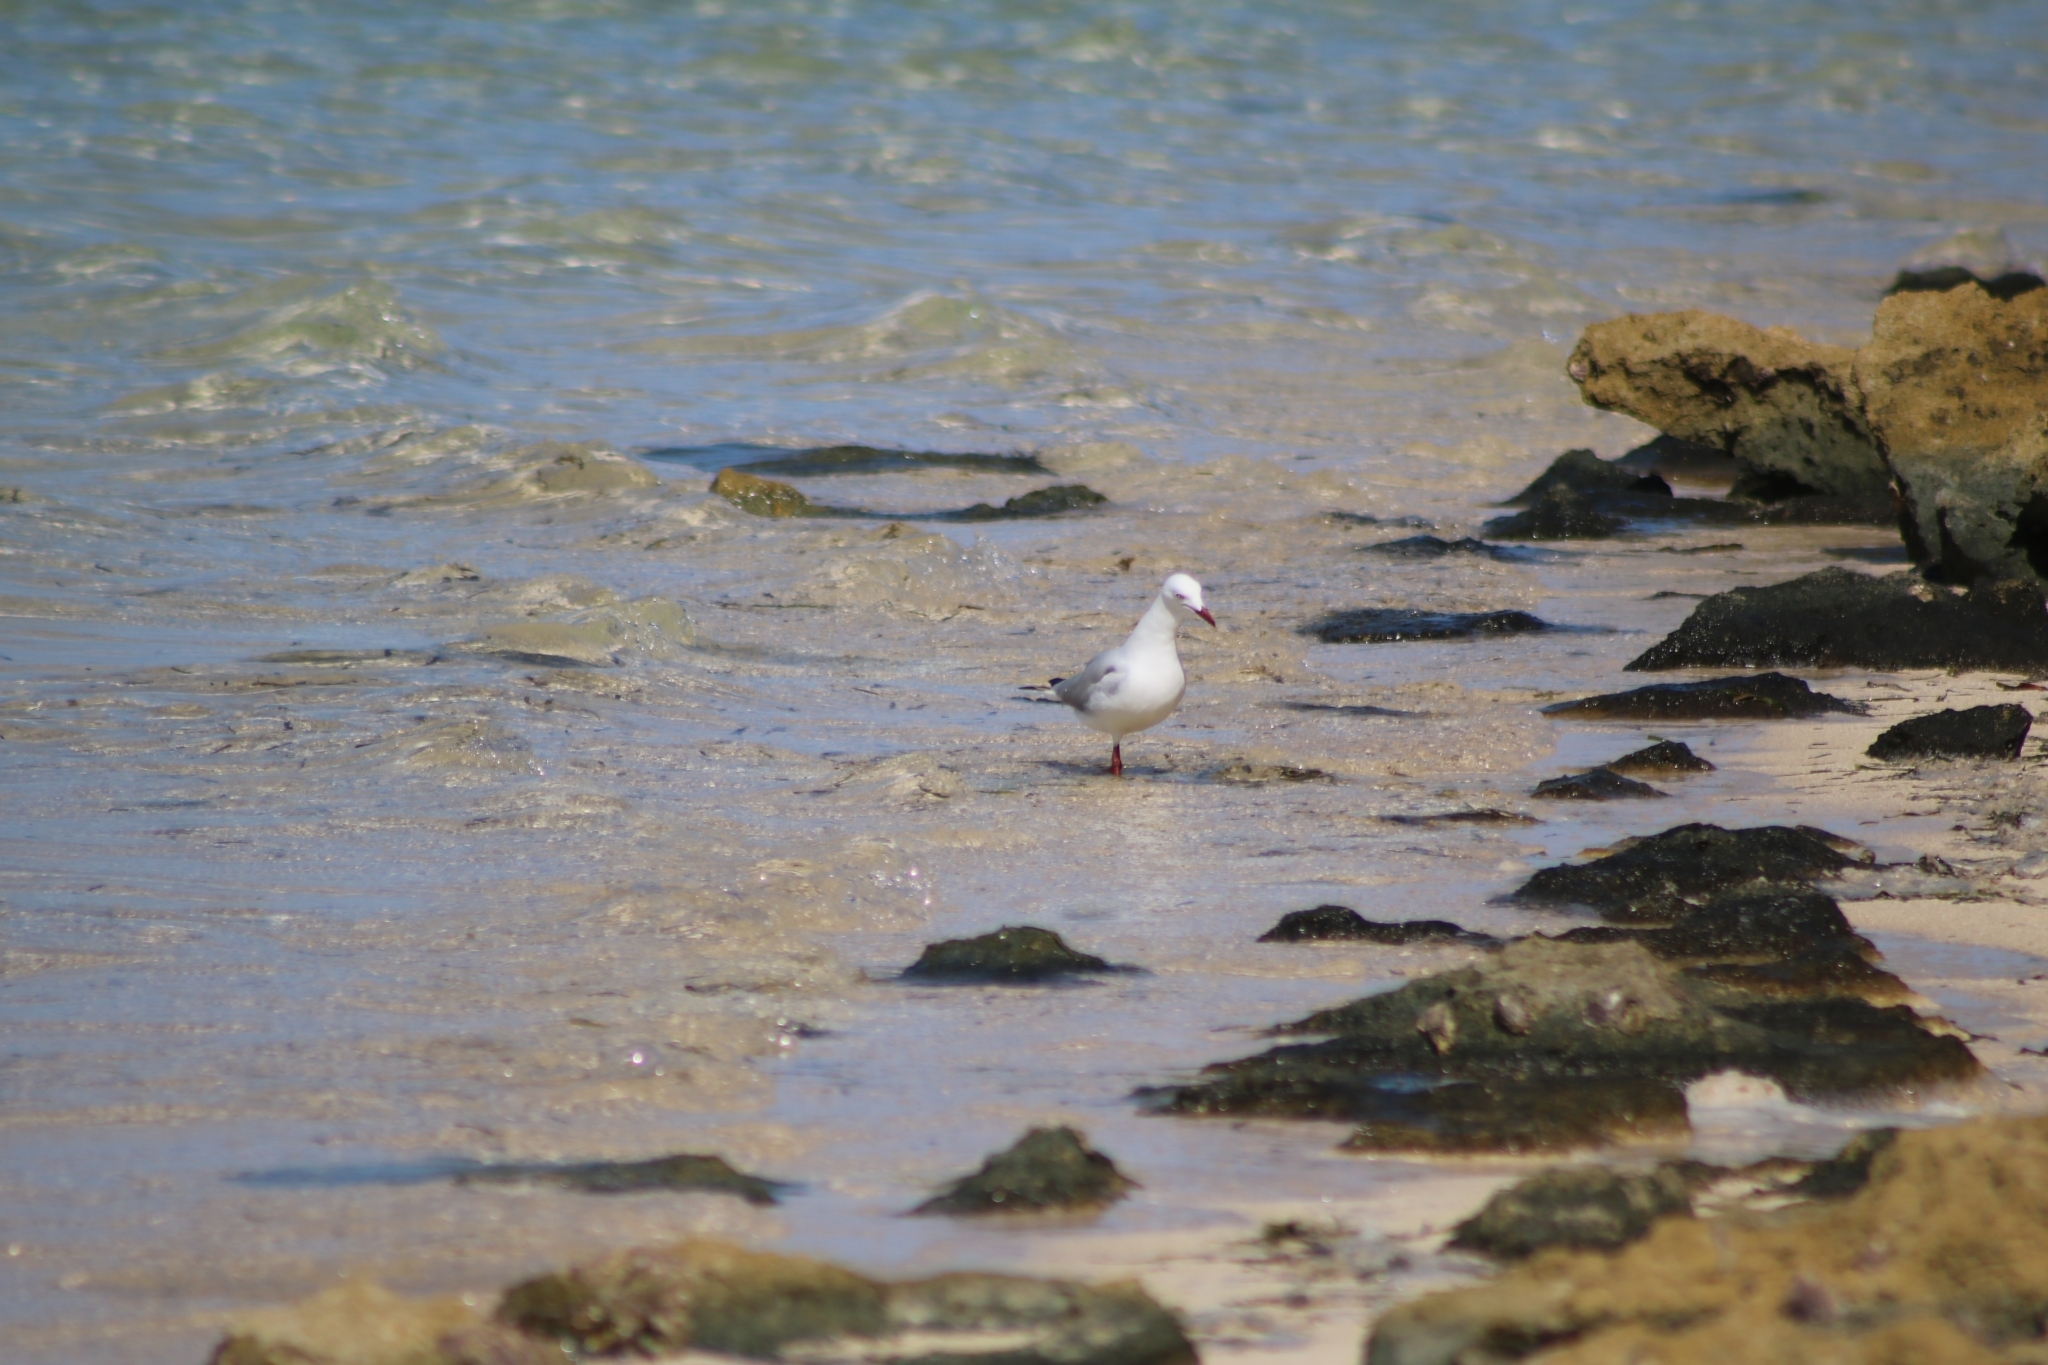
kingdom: Animalia
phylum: Chordata
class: Aves
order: Charadriiformes
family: Laridae
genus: Chroicocephalus
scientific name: Chroicocephalus novaehollandiae
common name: Silver gull
